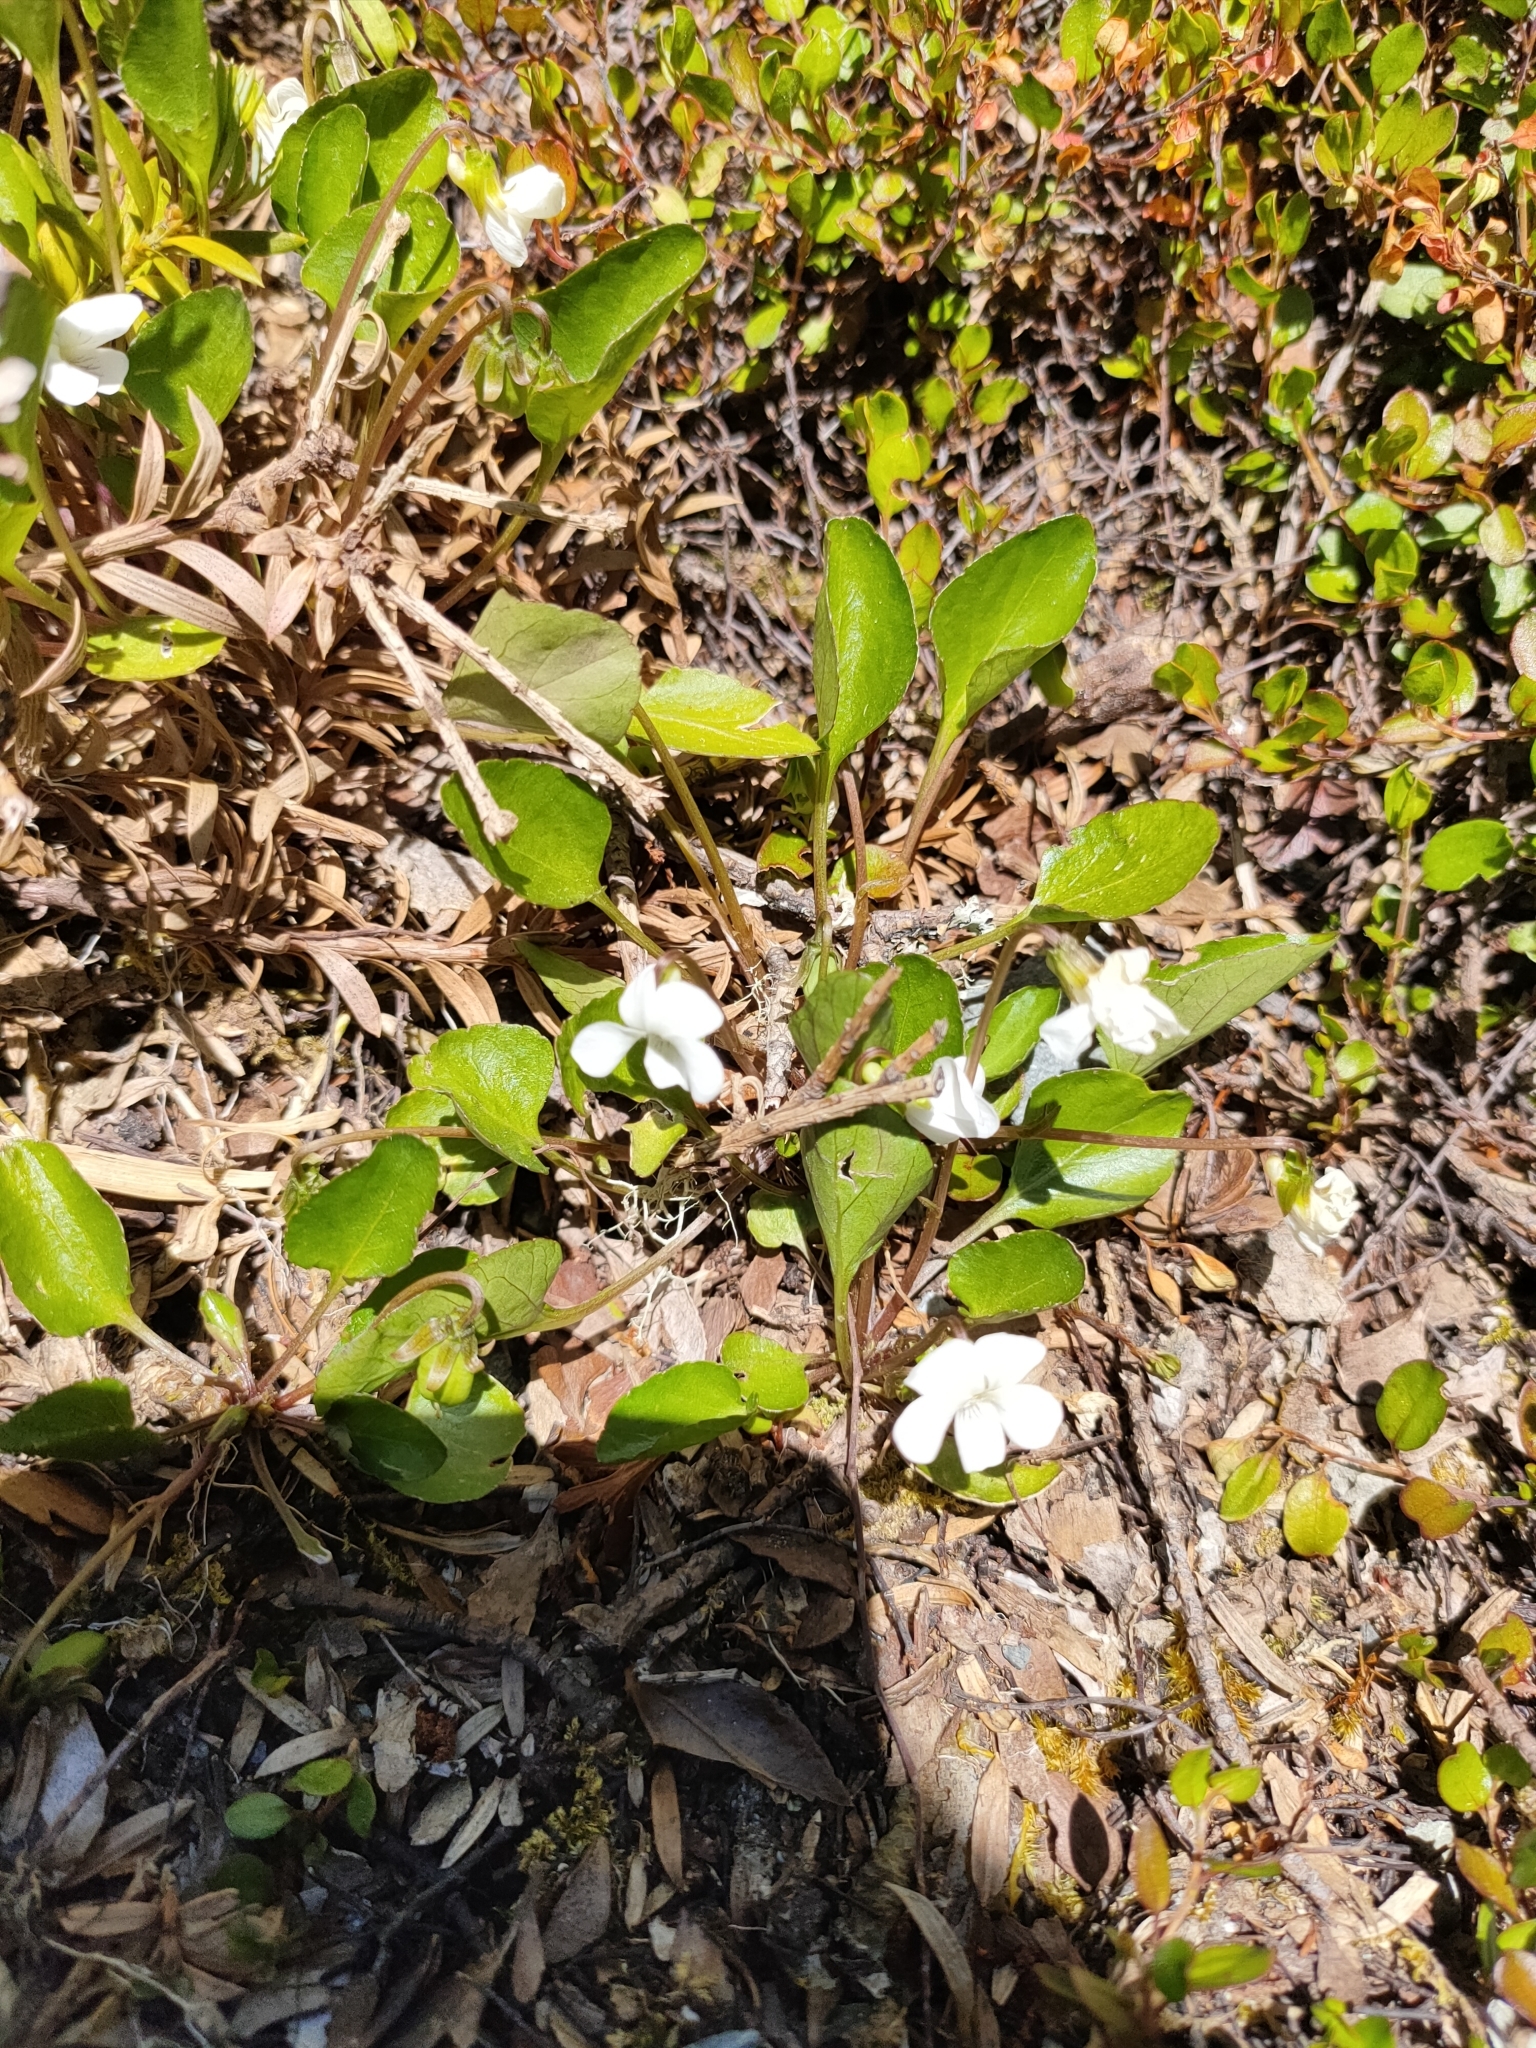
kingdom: Plantae
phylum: Tracheophyta
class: Magnoliopsida
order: Malpighiales
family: Violaceae
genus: Viola
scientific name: Viola cunninghamii
